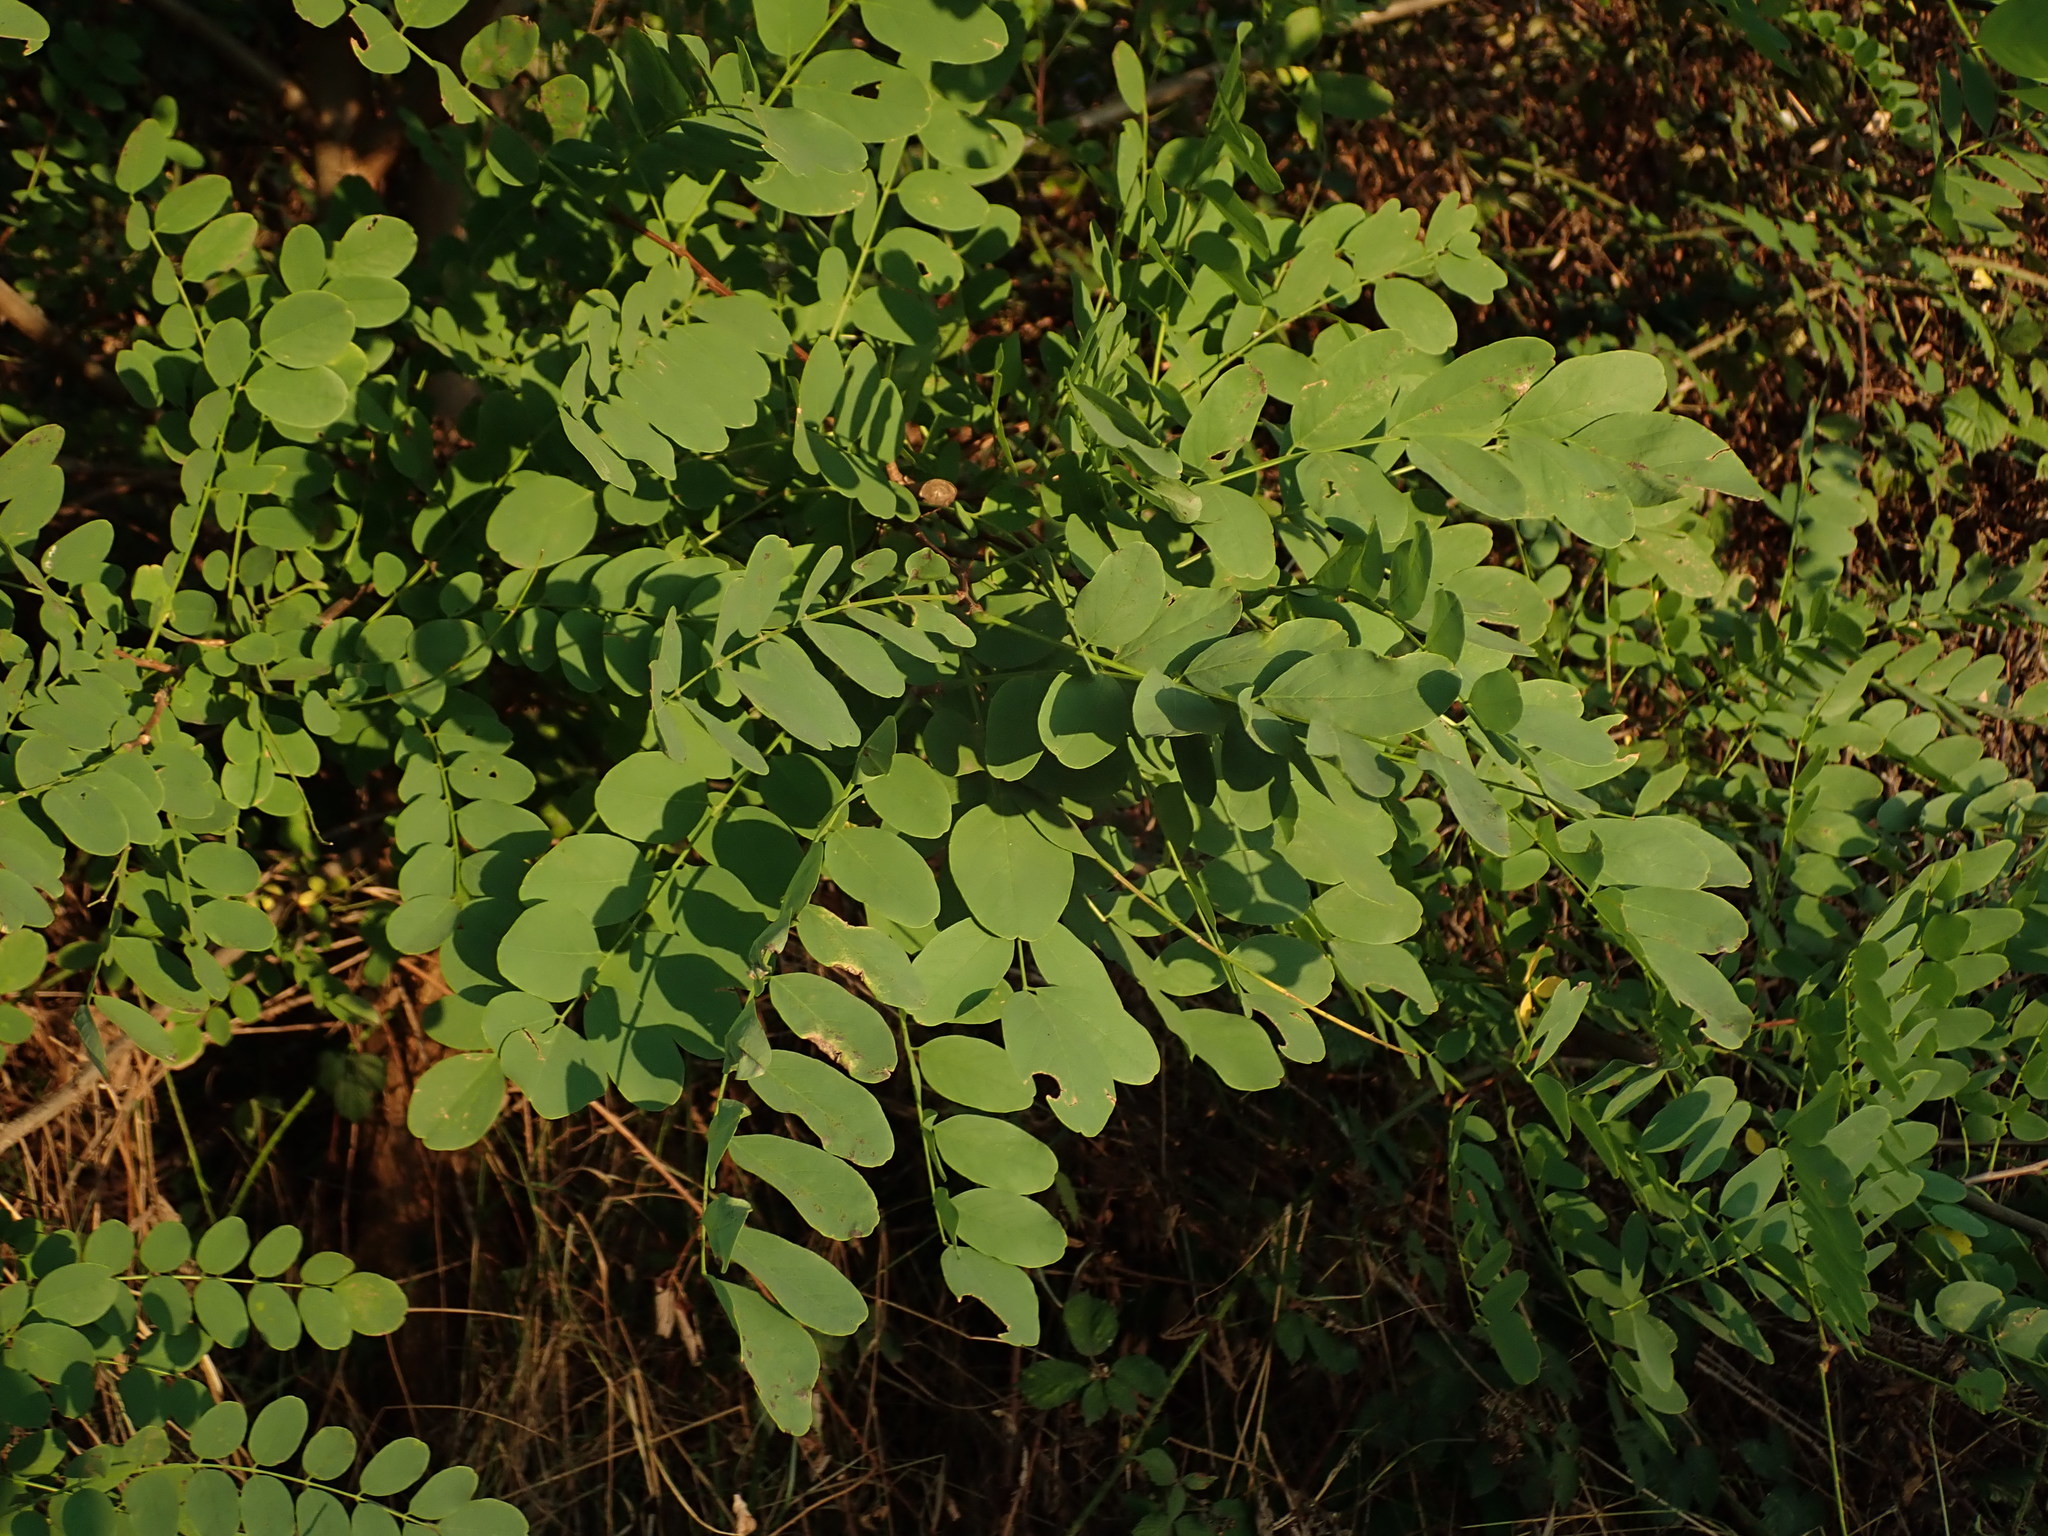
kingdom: Plantae
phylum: Tracheophyta
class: Magnoliopsida
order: Fabales
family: Fabaceae
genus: Robinia
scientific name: Robinia pseudoacacia
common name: Black locust
